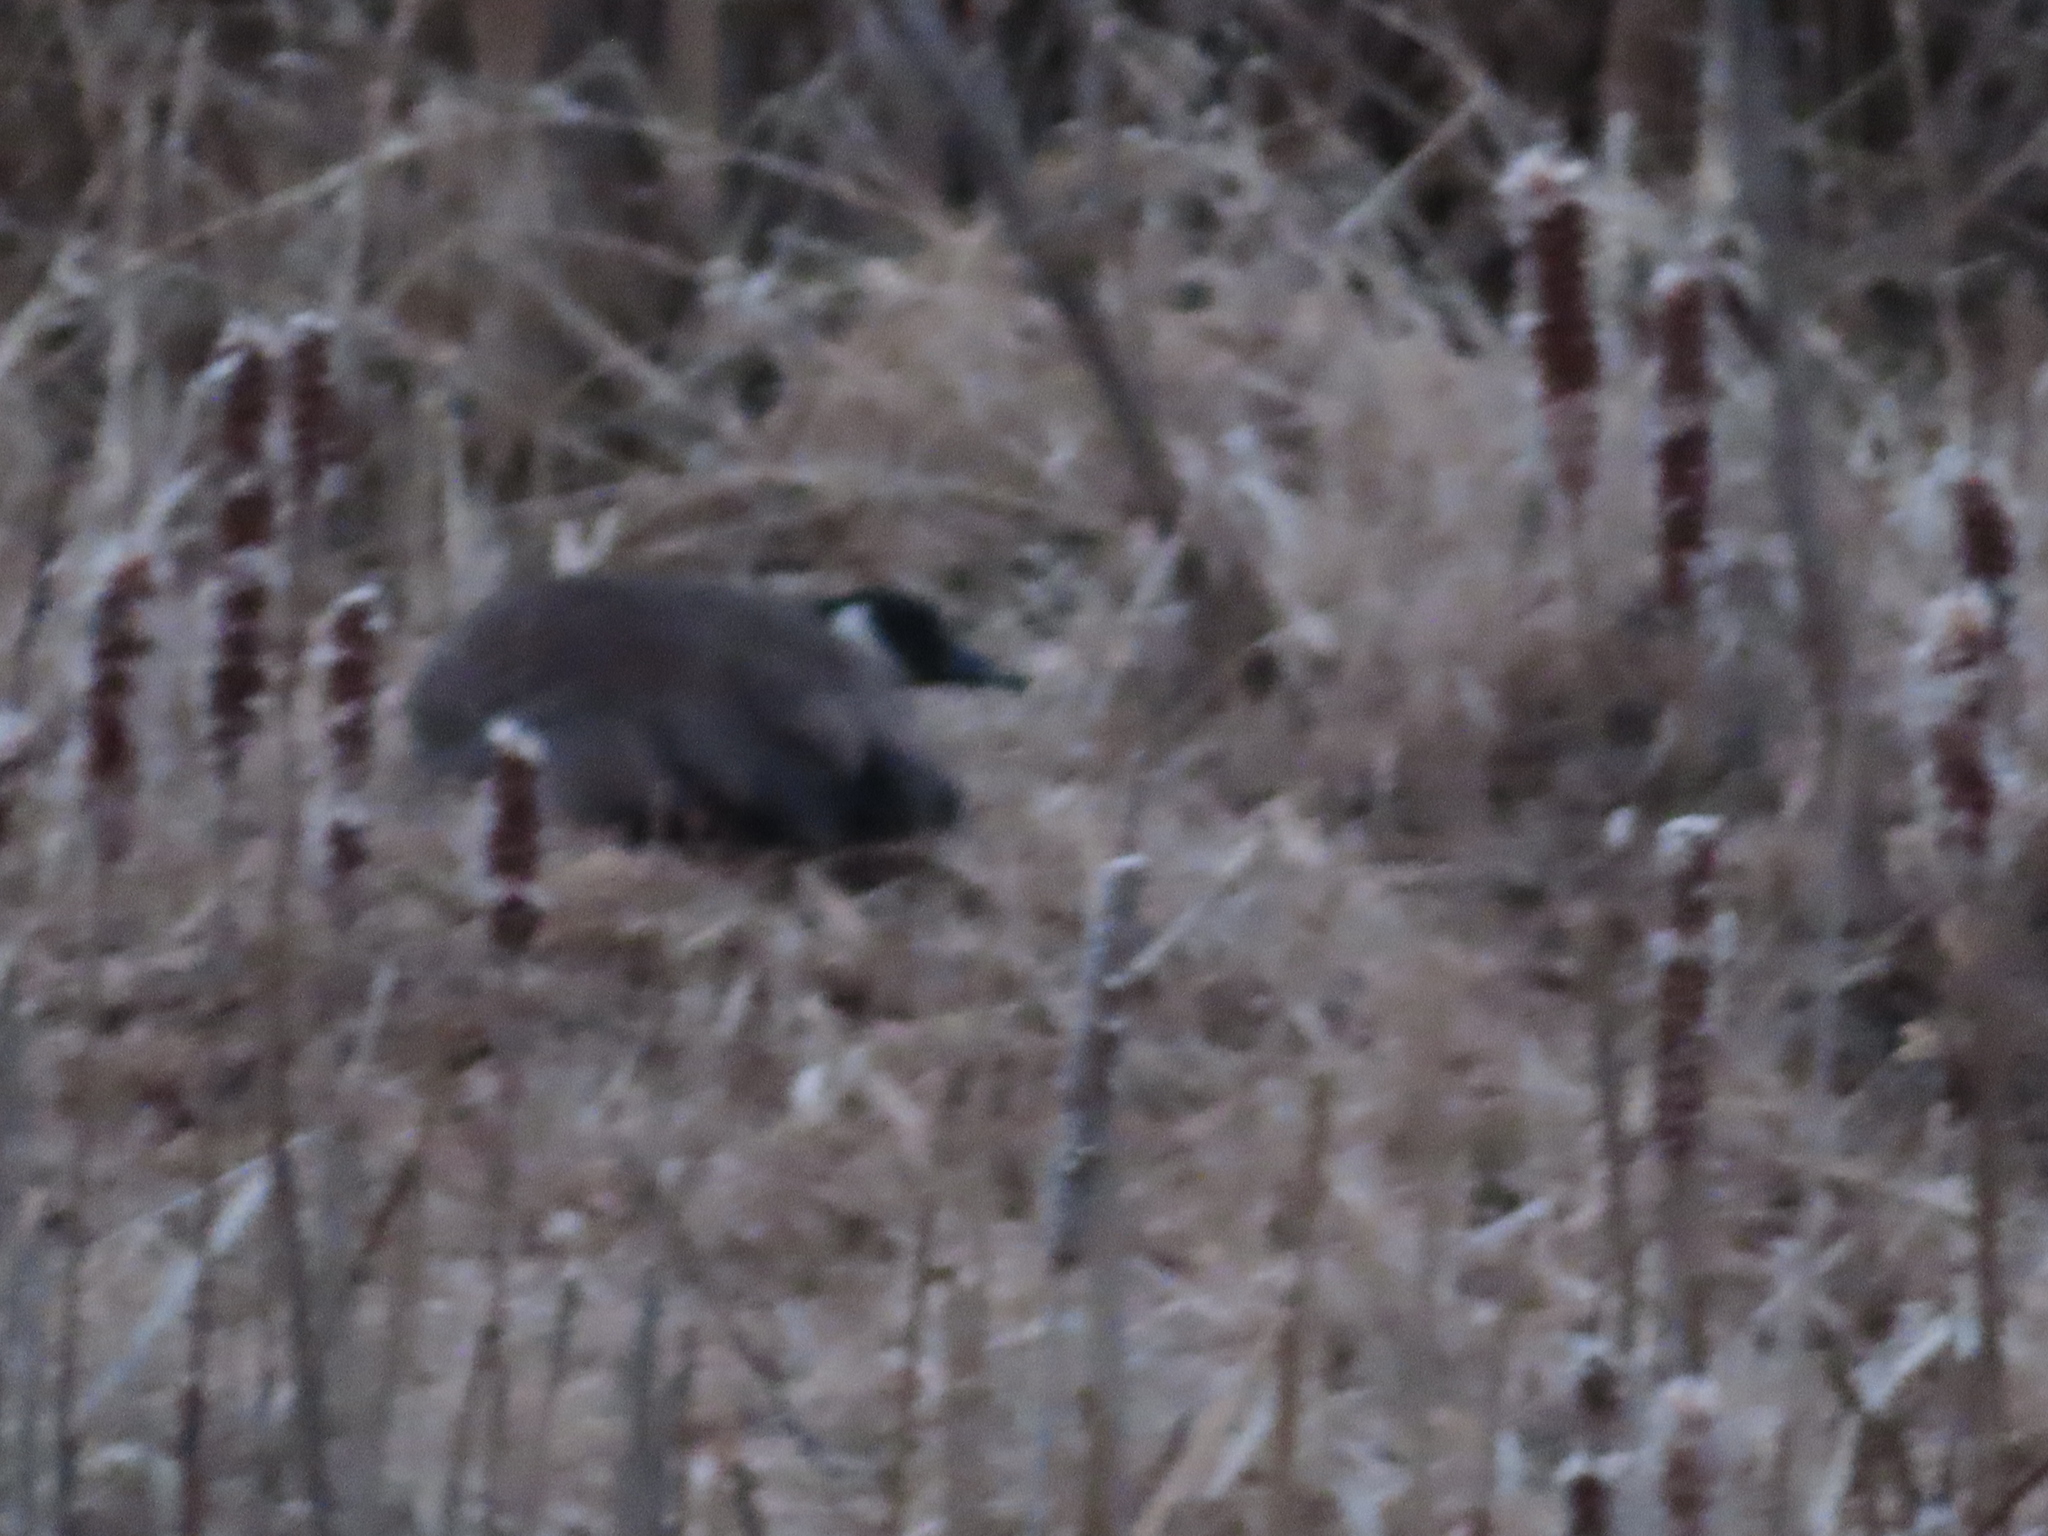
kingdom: Animalia
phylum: Chordata
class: Aves
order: Anseriformes
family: Anatidae
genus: Branta
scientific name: Branta canadensis
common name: Canada goose
